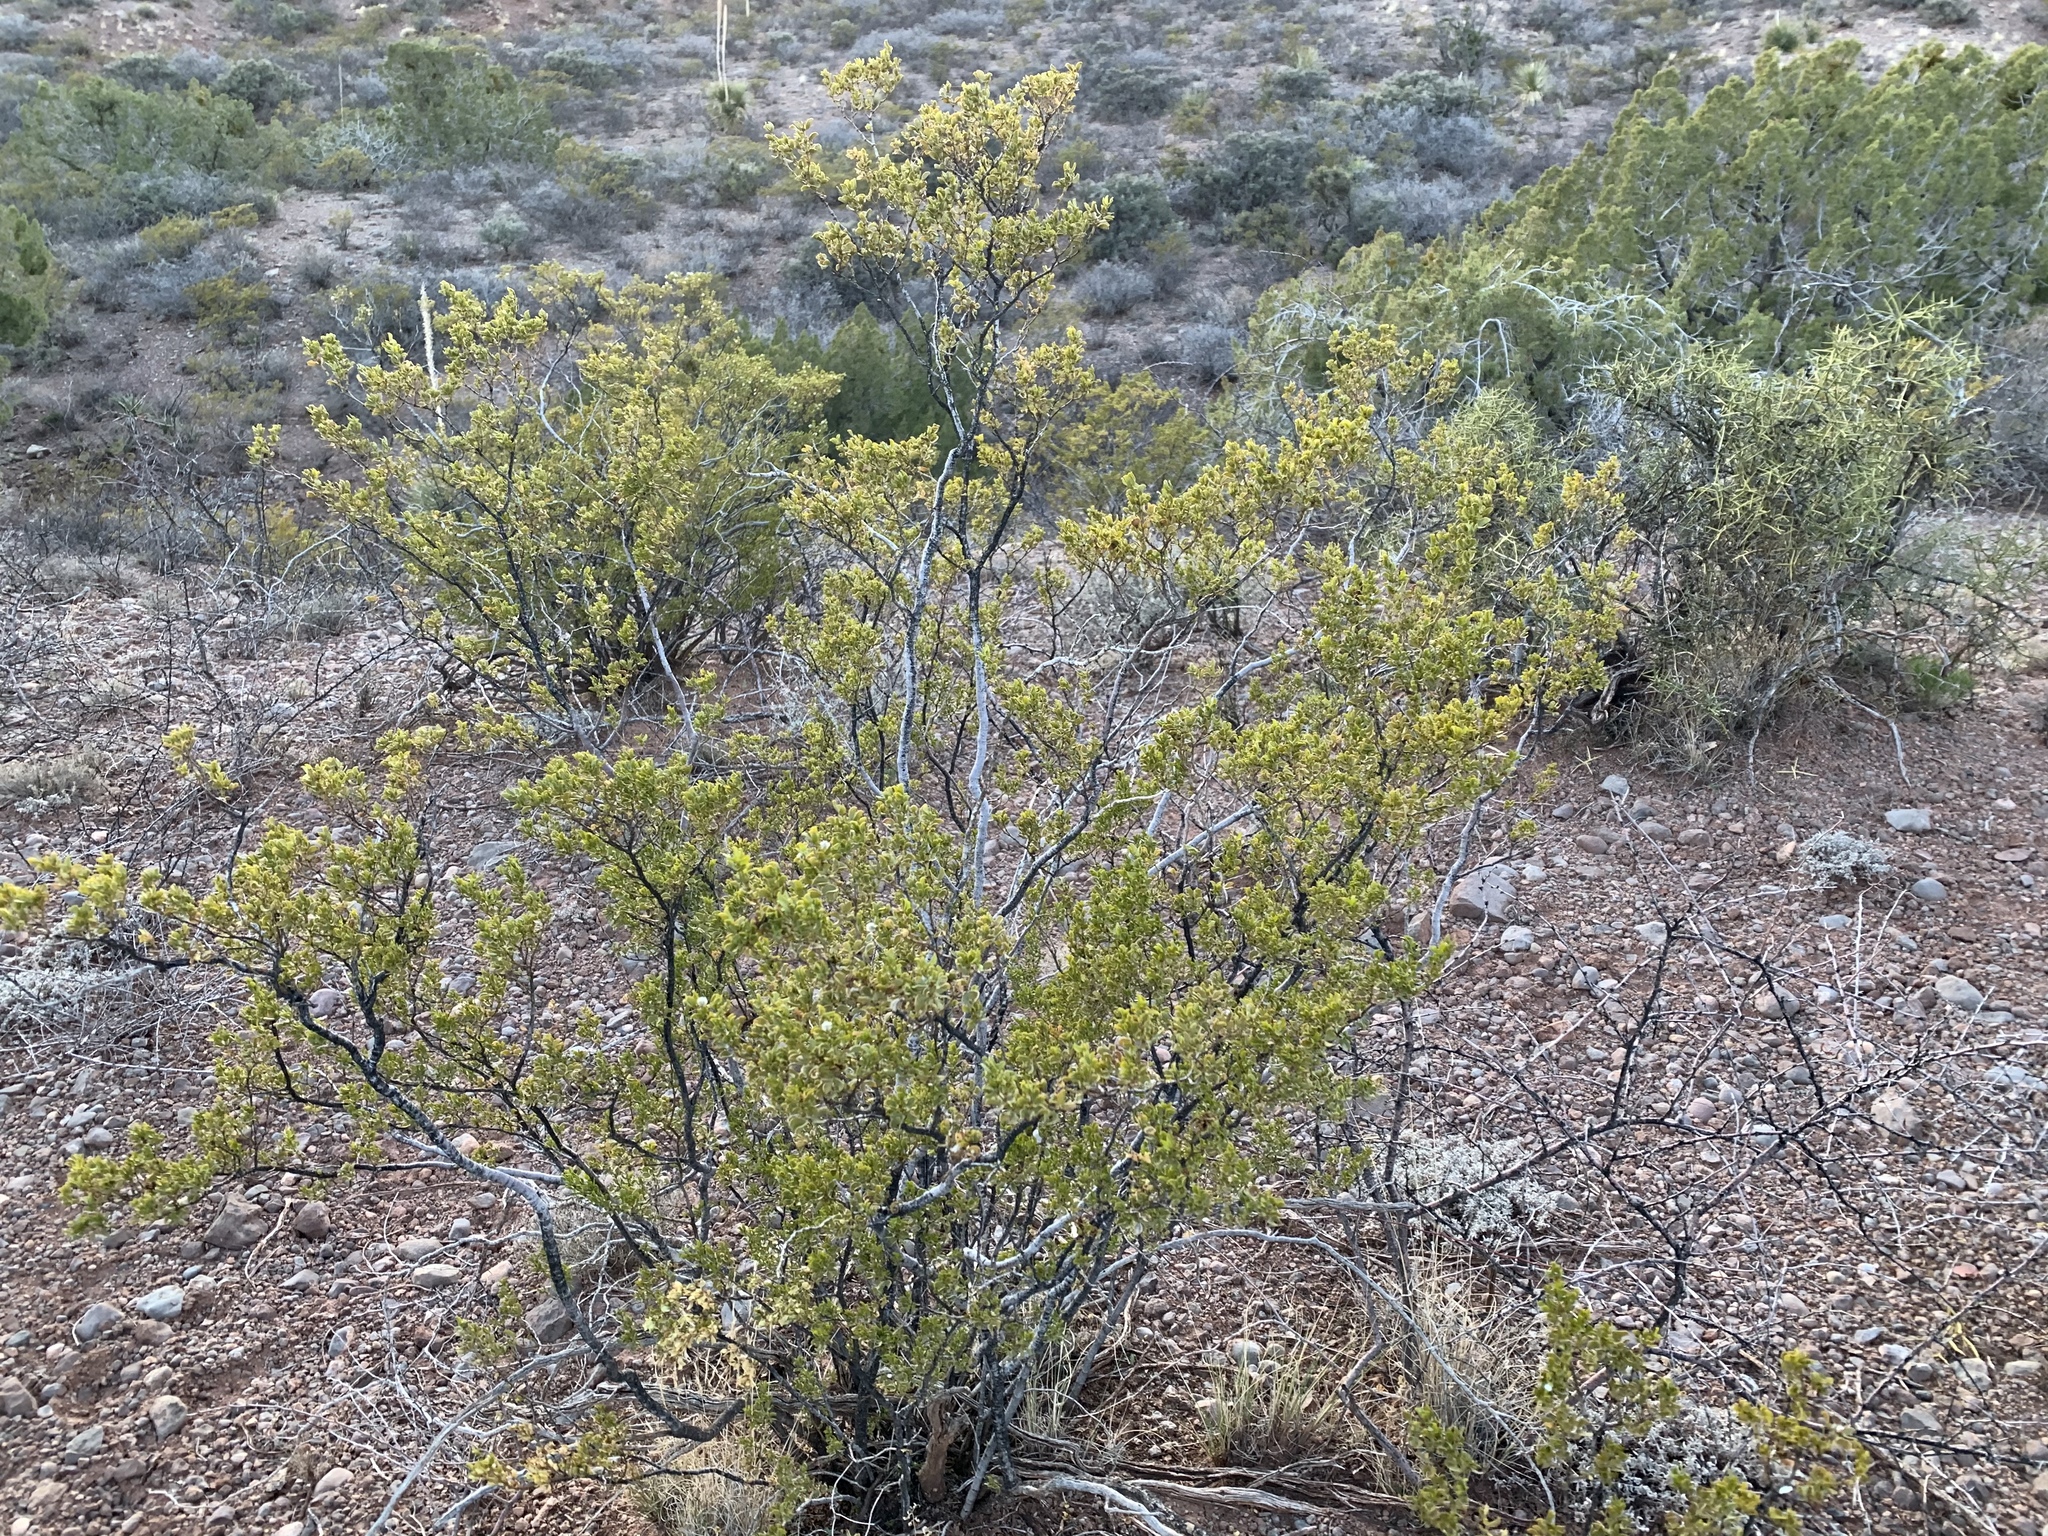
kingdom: Plantae
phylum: Tracheophyta
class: Magnoliopsida
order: Zygophyllales
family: Zygophyllaceae
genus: Larrea
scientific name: Larrea tridentata
